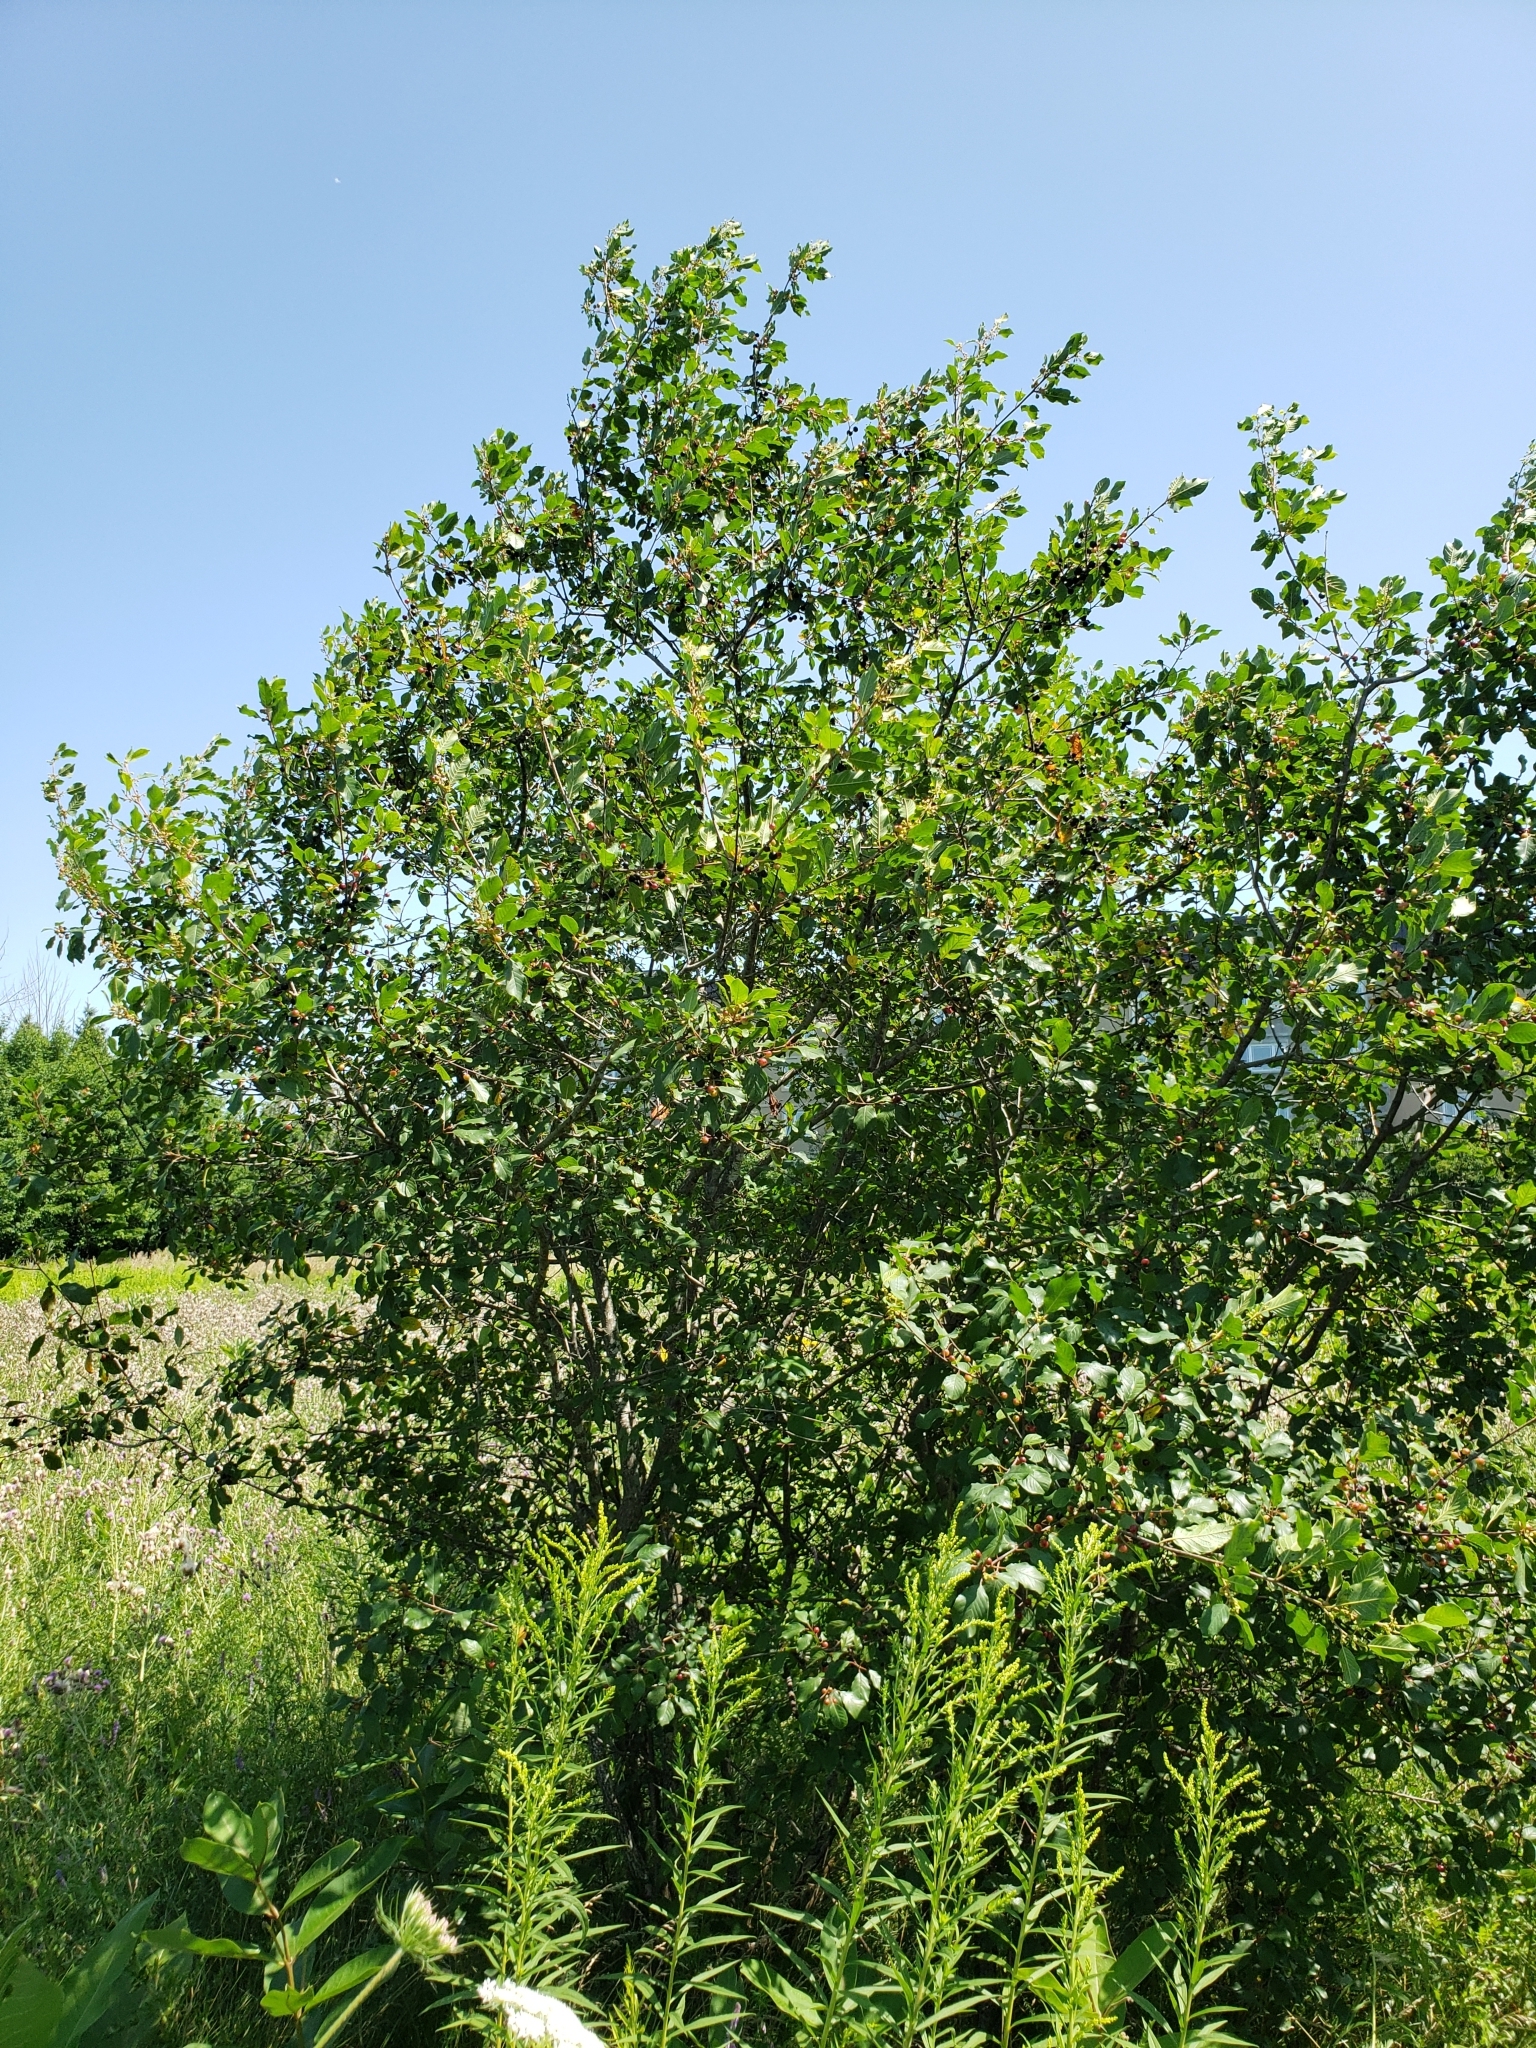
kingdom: Plantae
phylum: Tracheophyta
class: Magnoliopsida
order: Rosales
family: Rhamnaceae
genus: Frangula
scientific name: Frangula alnus
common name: Alder buckthorn
